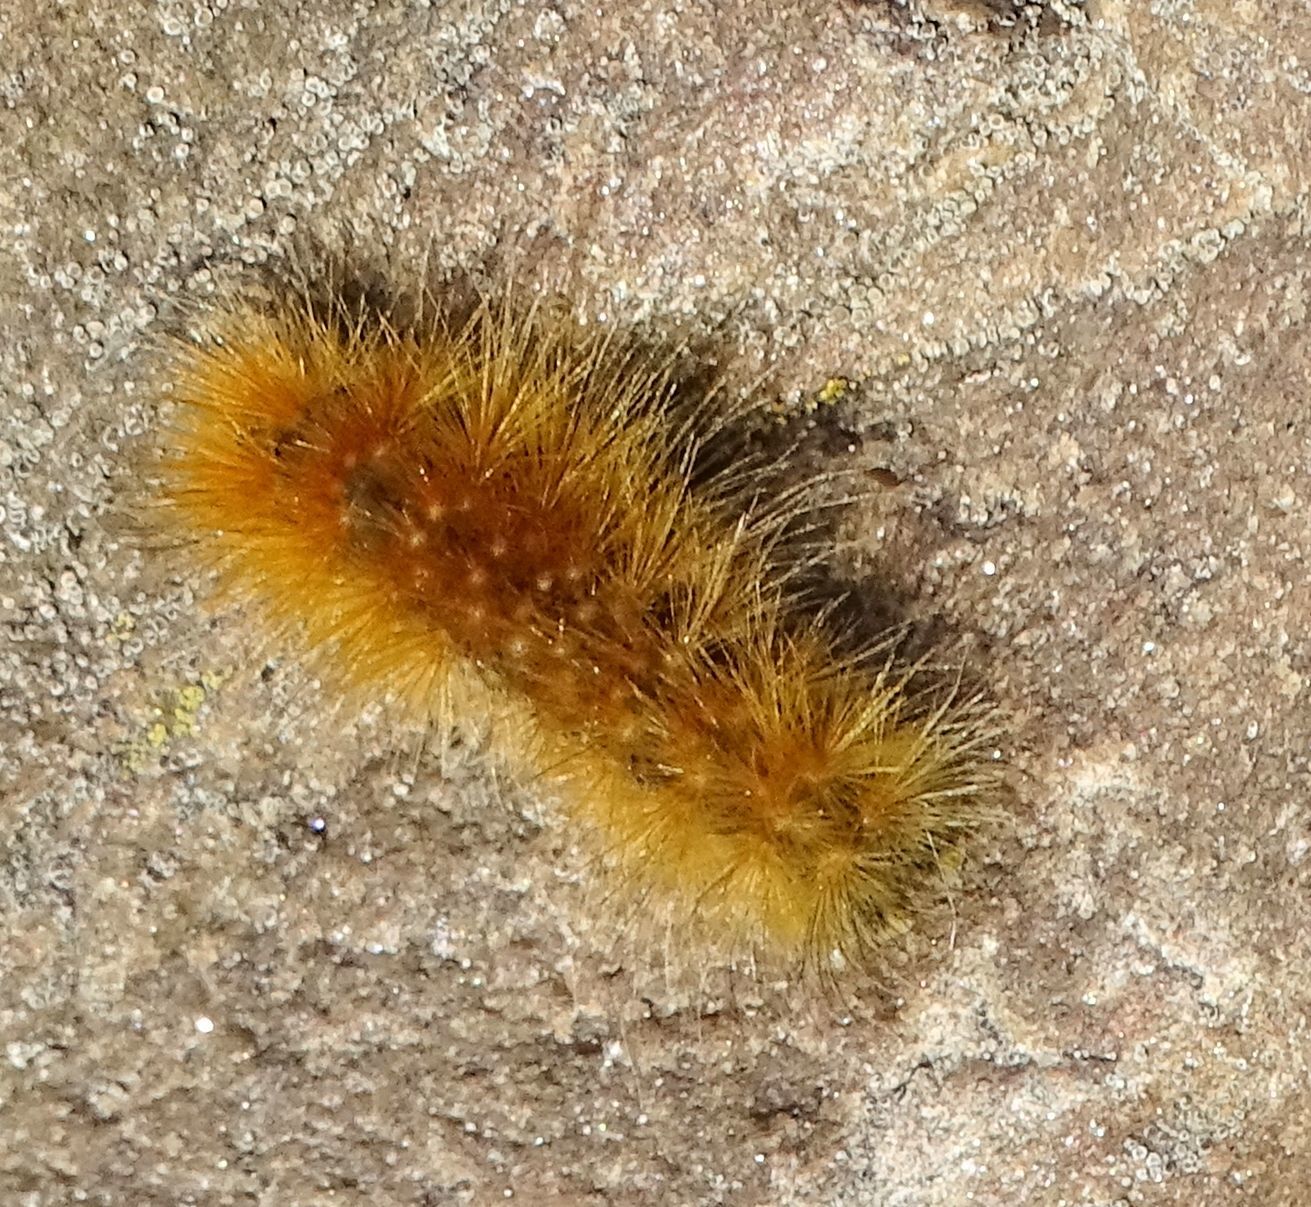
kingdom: Animalia
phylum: Arthropoda
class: Insecta
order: Lepidoptera
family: Erebidae
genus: Spilosoma
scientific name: Spilosoma virginica
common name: Virginia tiger moth
